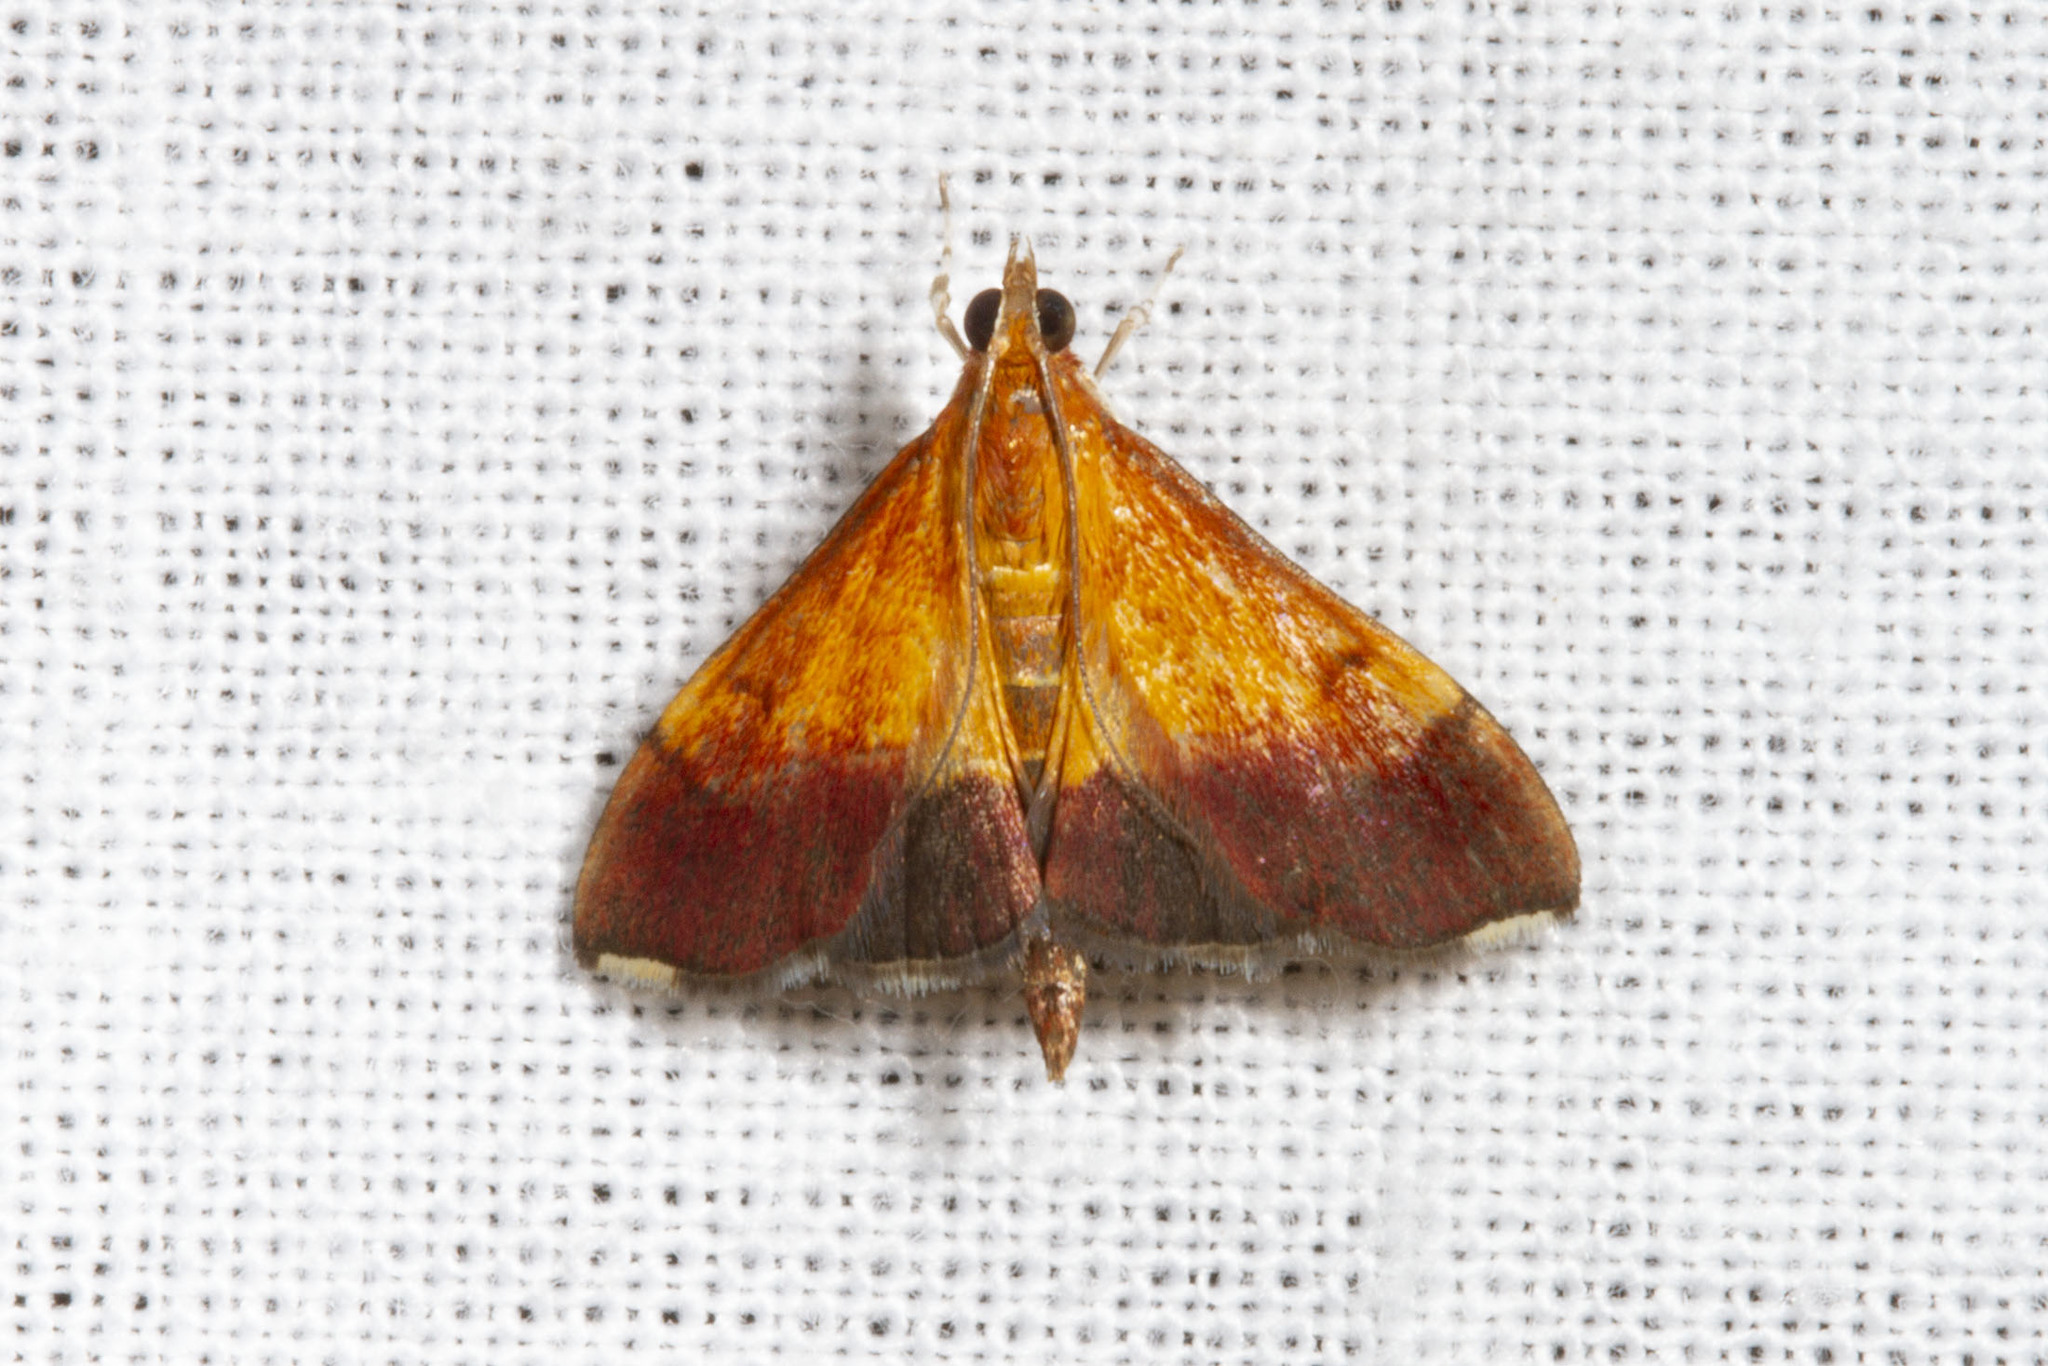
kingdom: Animalia
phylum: Arthropoda
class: Insecta
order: Lepidoptera
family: Crambidae
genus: Pyrausta
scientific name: Pyrausta bicoloralis
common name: Bicolored pyrausta moth
